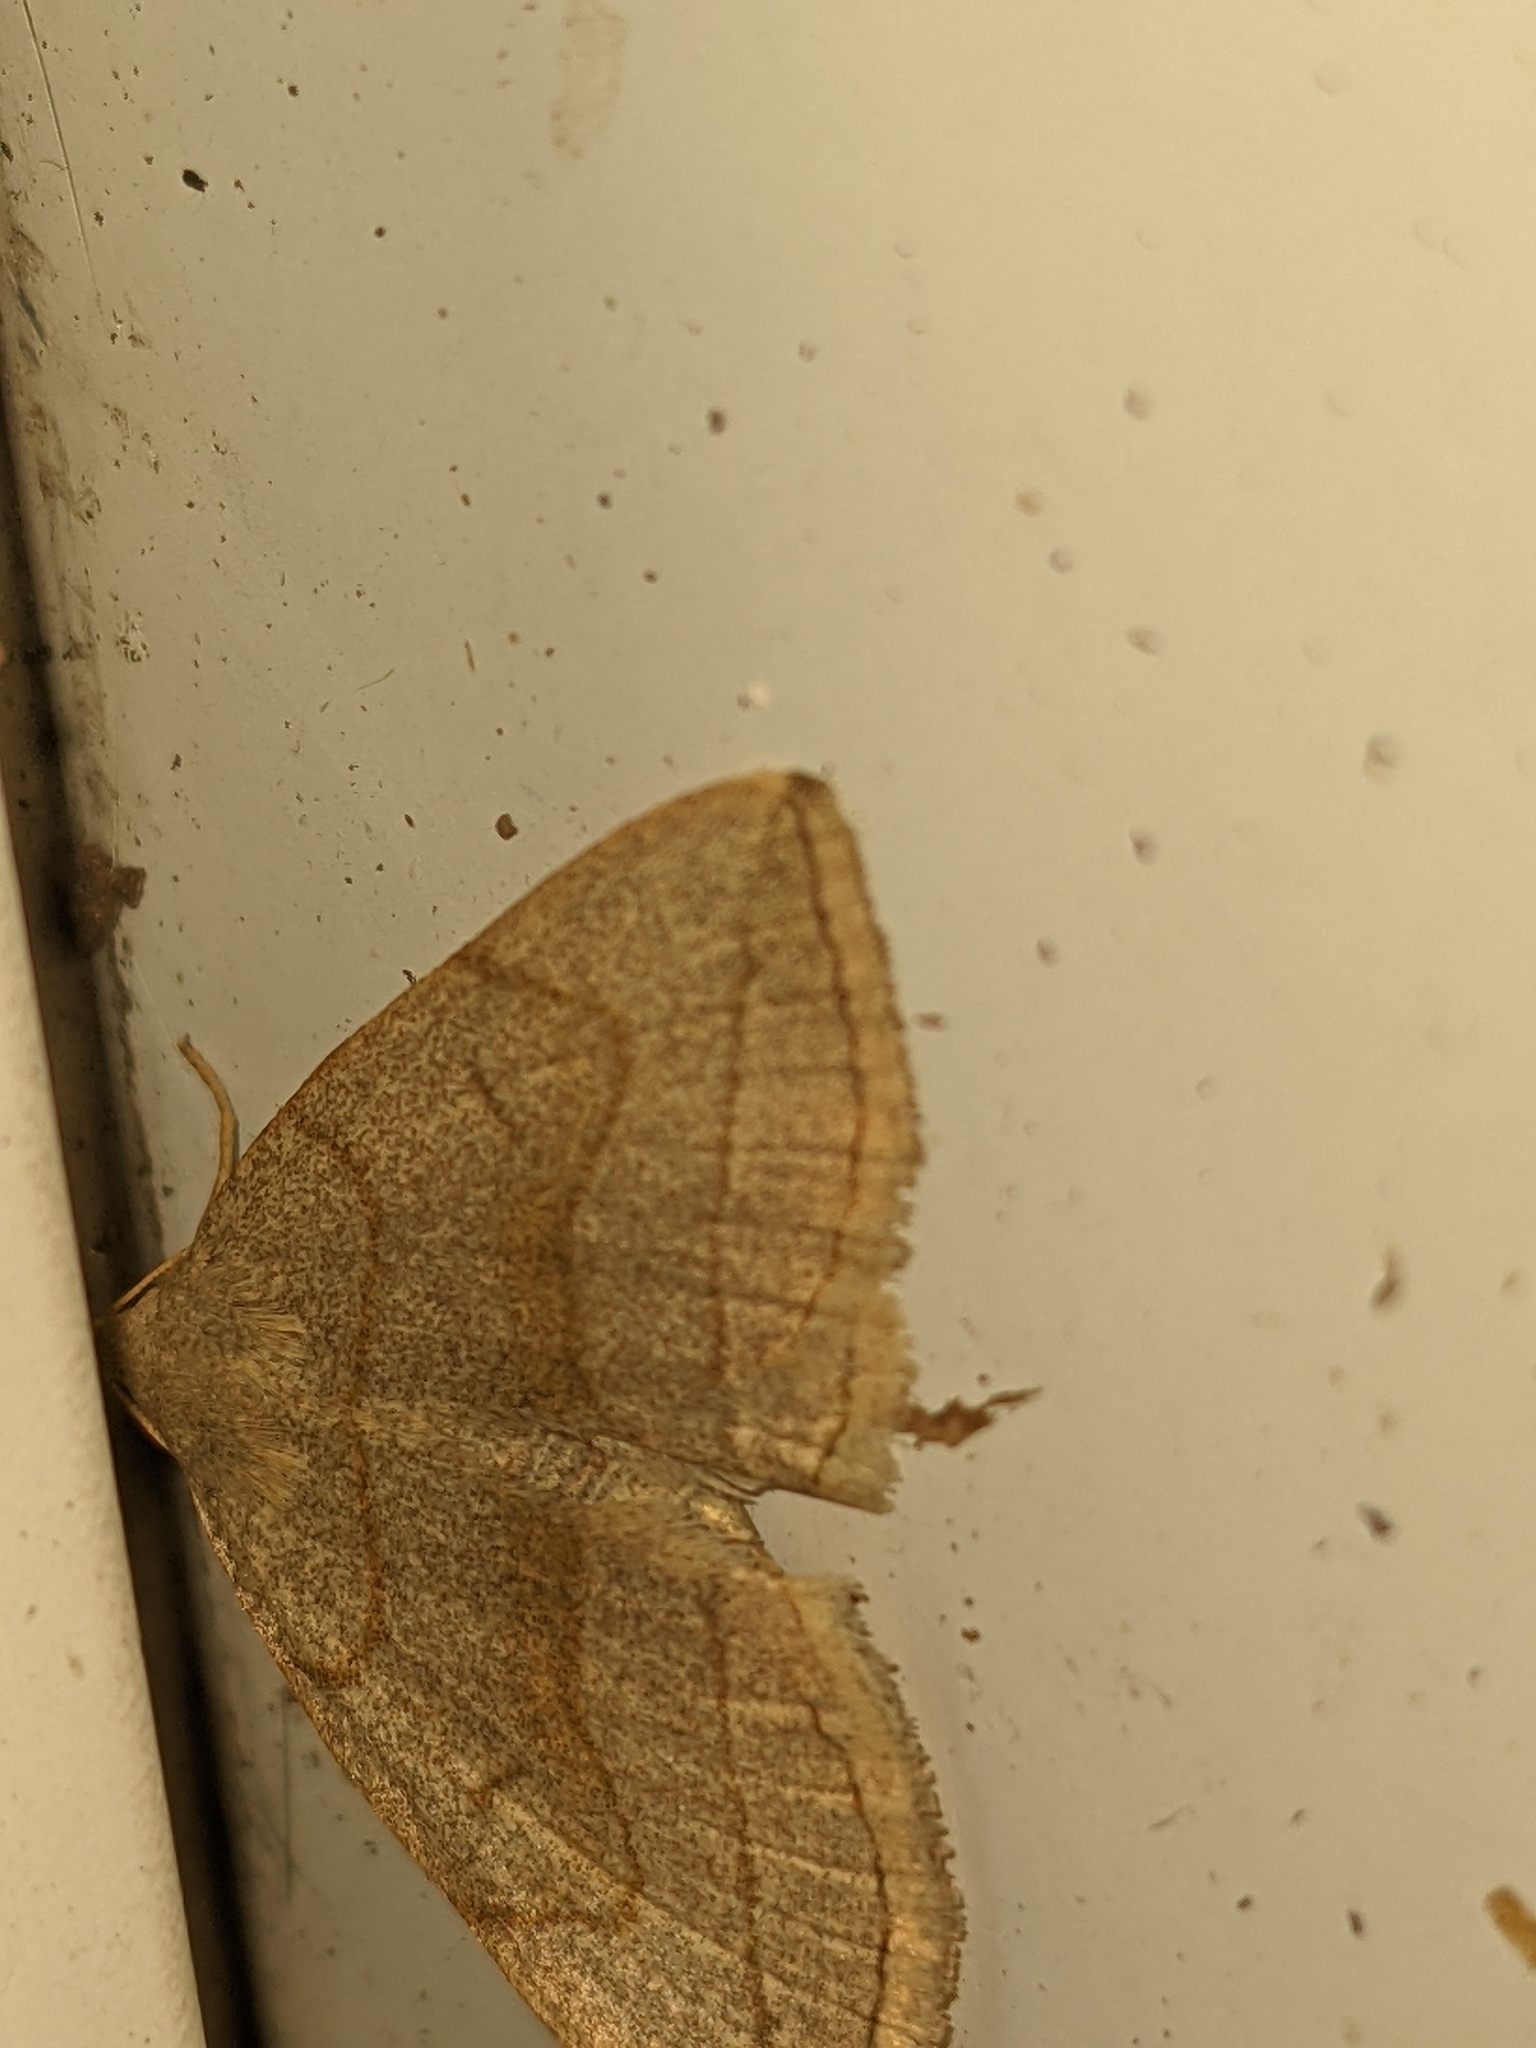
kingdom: Animalia
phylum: Arthropoda
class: Insecta
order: Lepidoptera
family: Erebidae
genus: Zanclognatha
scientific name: Zanclognatha pedipilalis
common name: Grayish fan-foot
